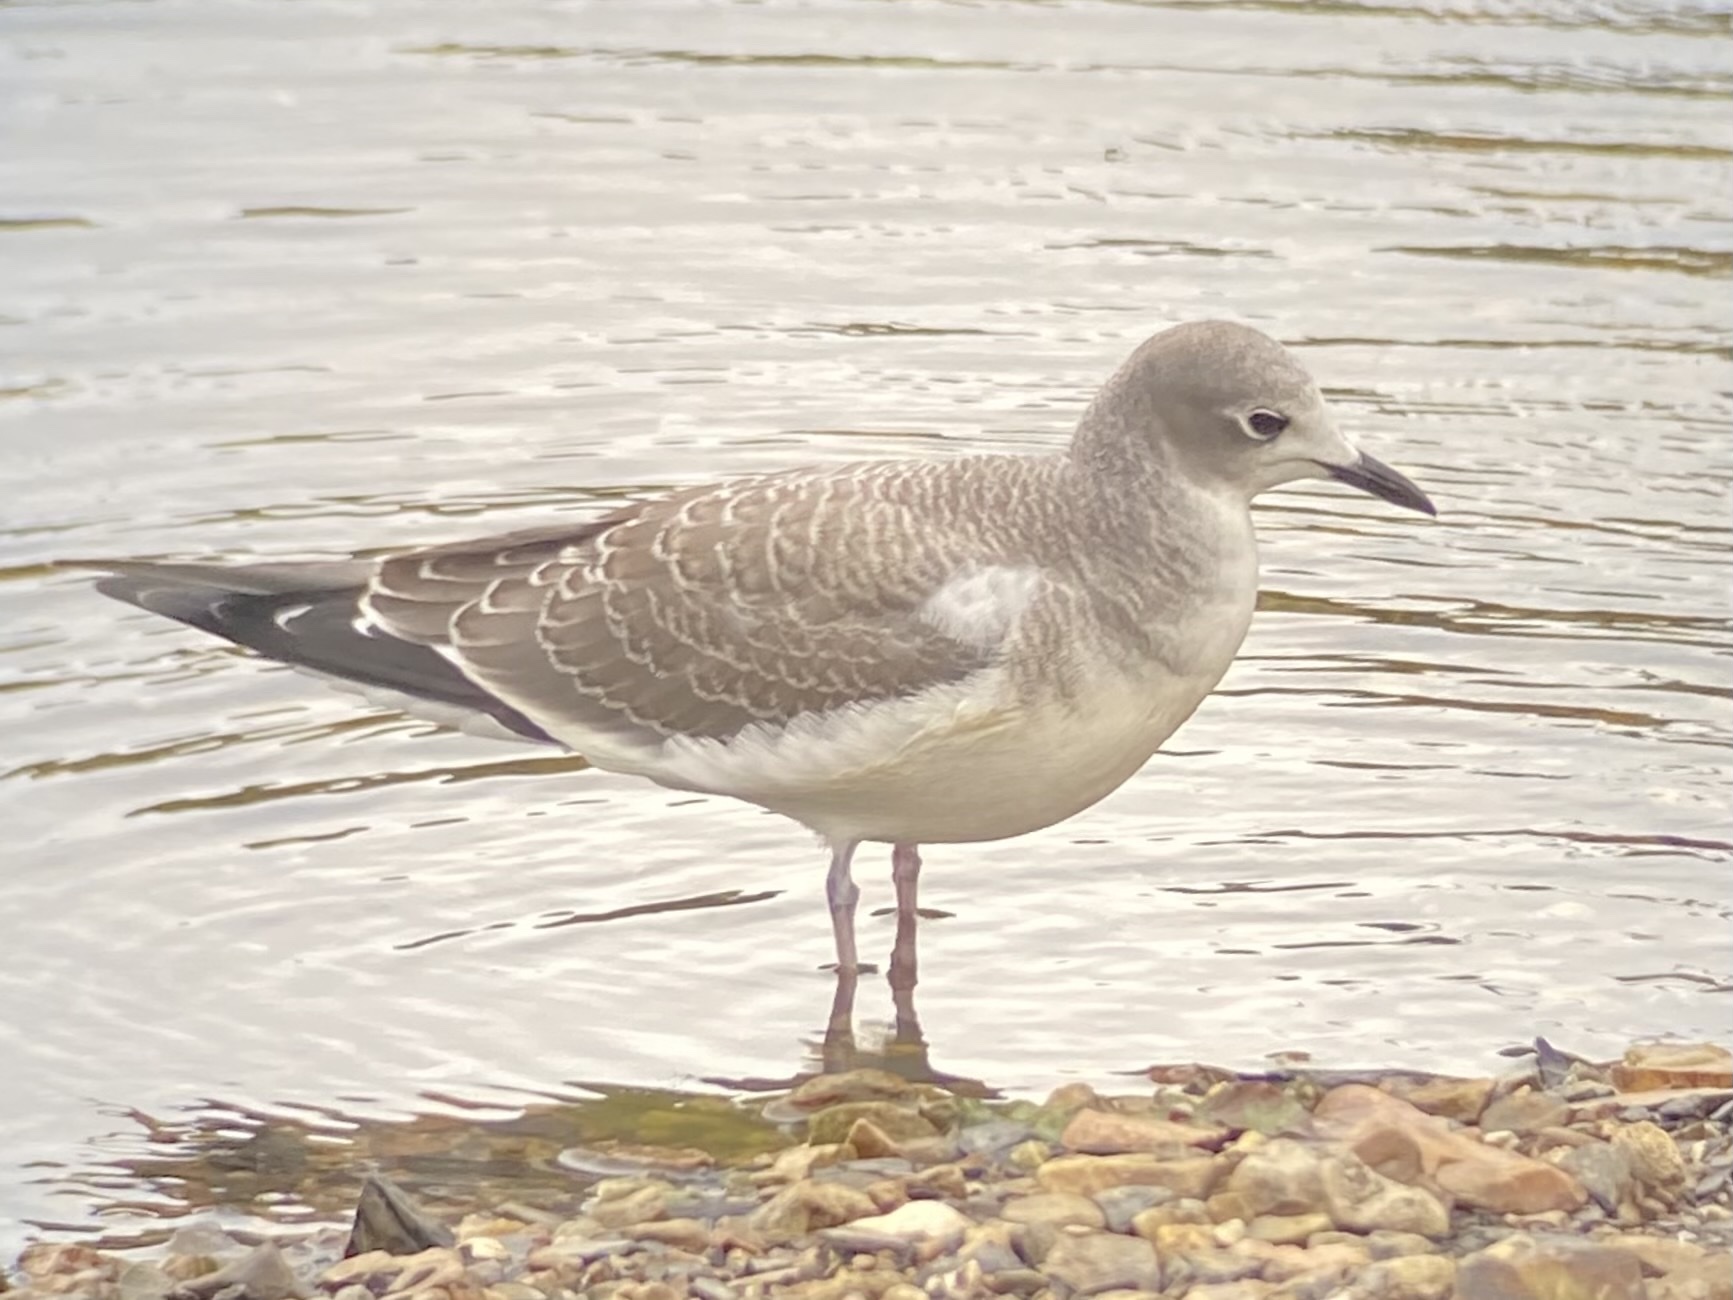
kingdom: Animalia
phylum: Chordata
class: Aves
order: Charadriiformes
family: Laridae
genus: Xema
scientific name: Xema sabini
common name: Sabine's gull
